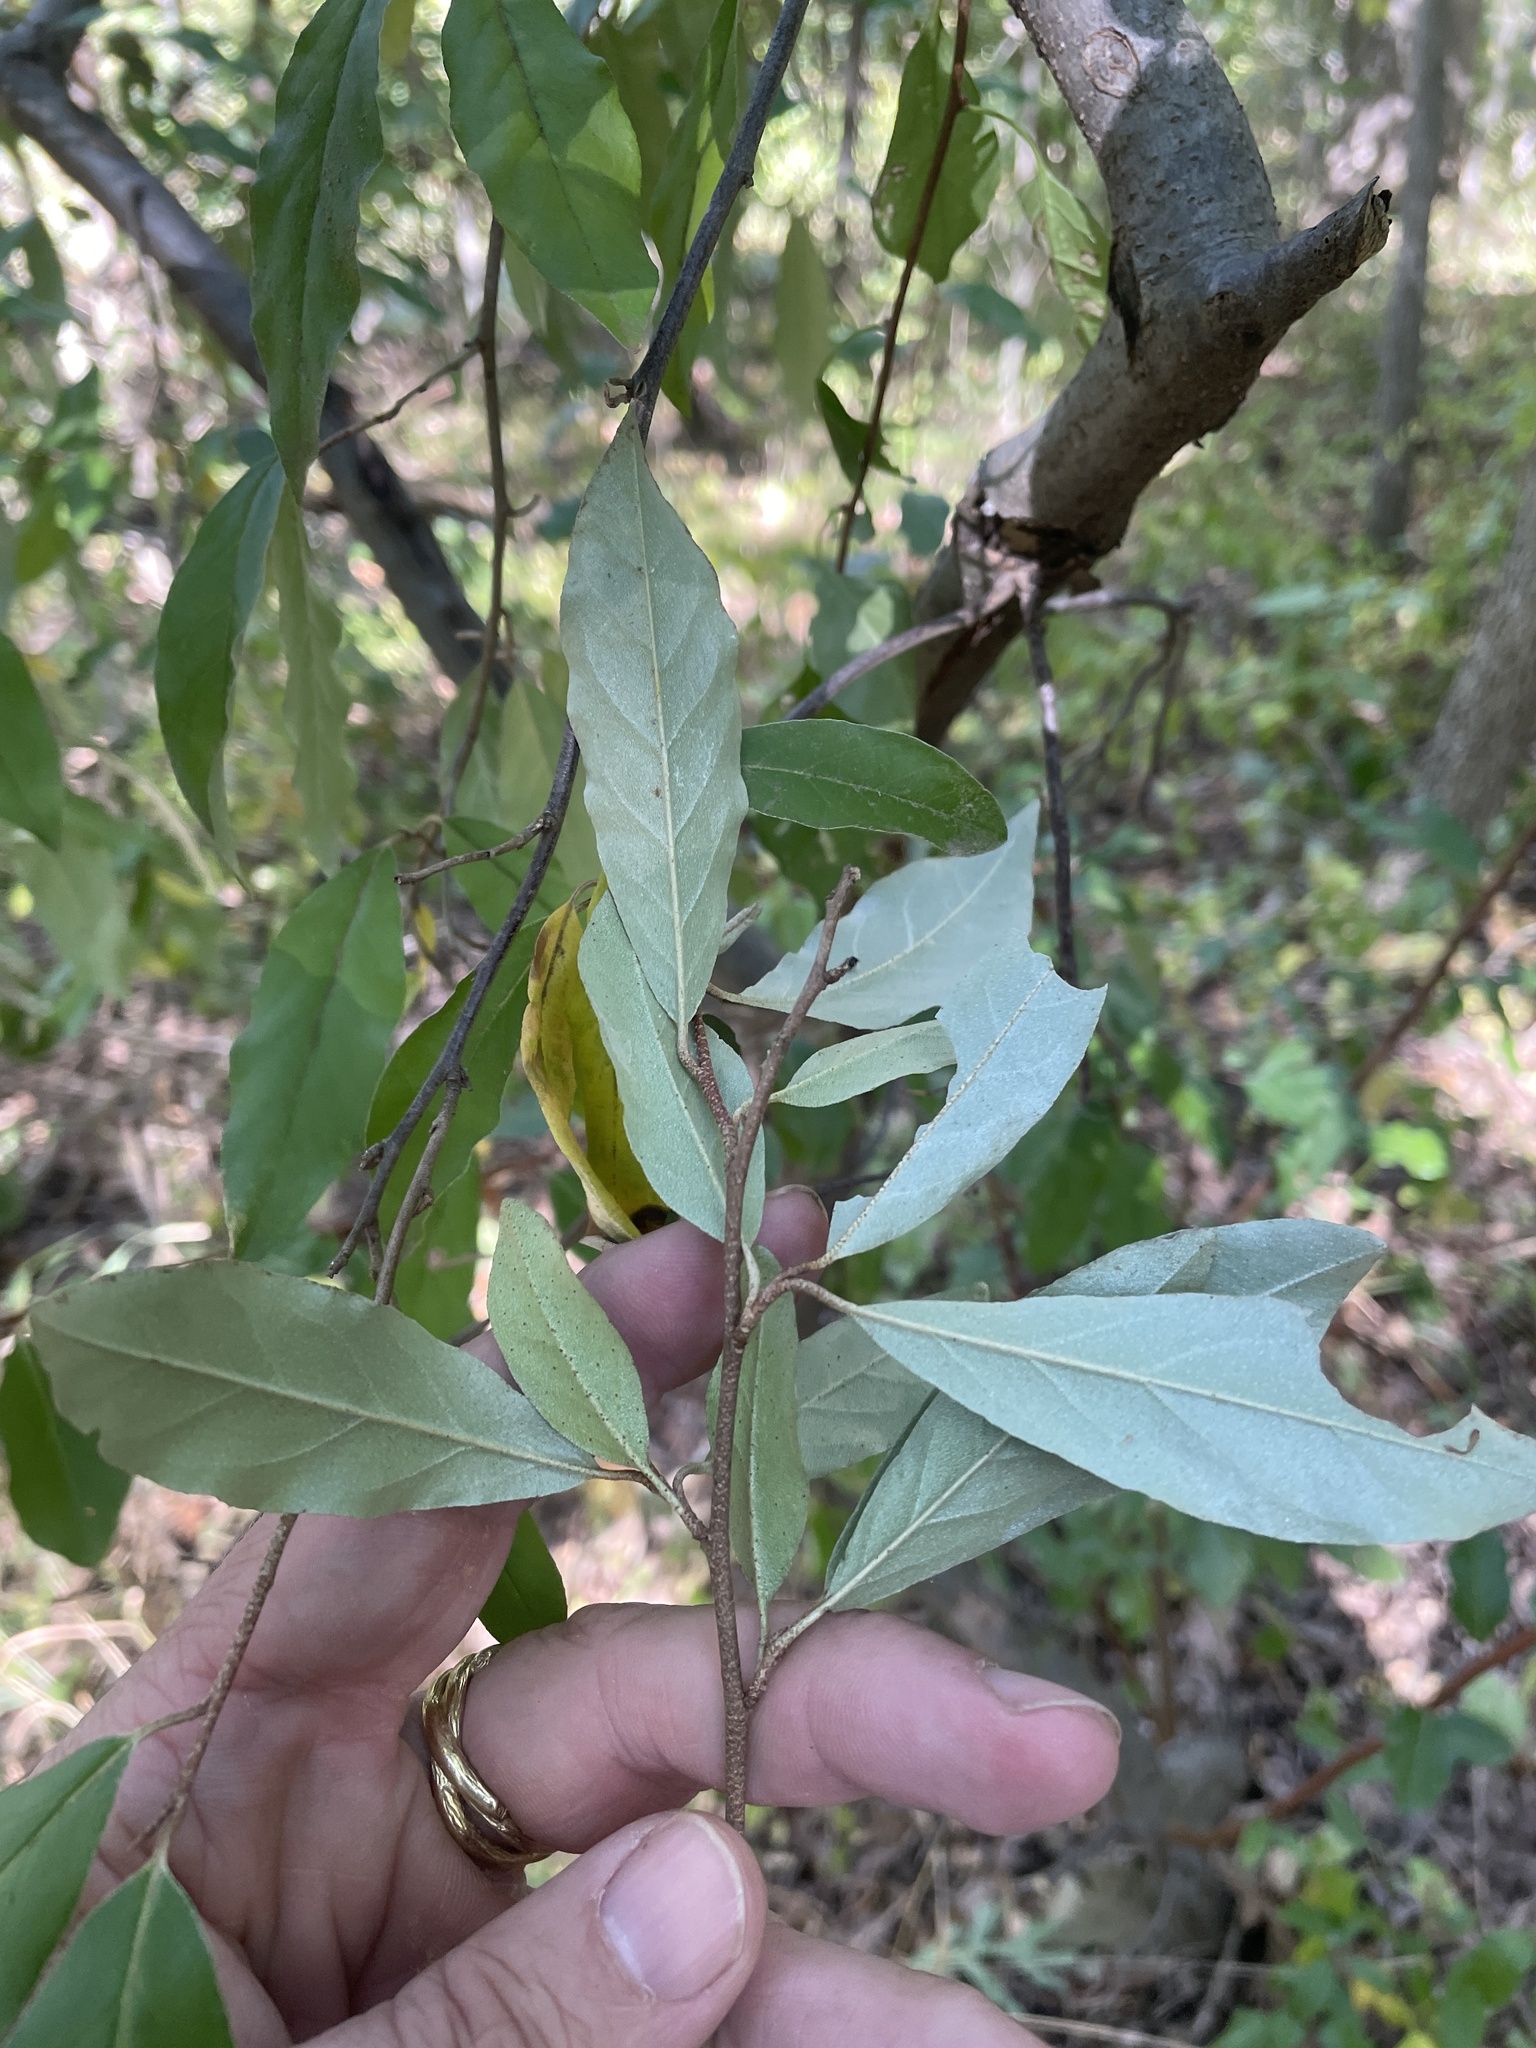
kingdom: Plantae
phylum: Tracheophyta
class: Magnoliopsida
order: Rosales
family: Elaeagnaceae
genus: Elaeagnus
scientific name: Elaeagnus umbellata
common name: Autumn olive
